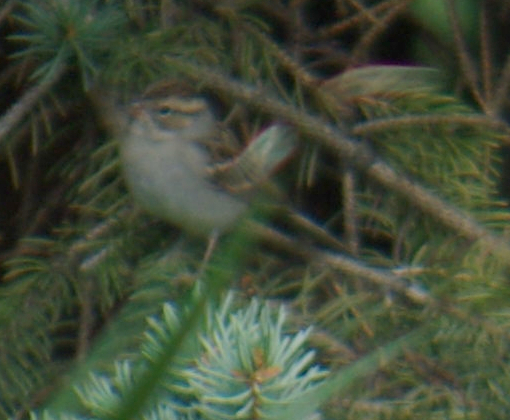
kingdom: Animalia
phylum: Chordata
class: Aves
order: Passeriformes
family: Passerellidae
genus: Spizella
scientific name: Spizella passerina
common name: Chipping sparrow
